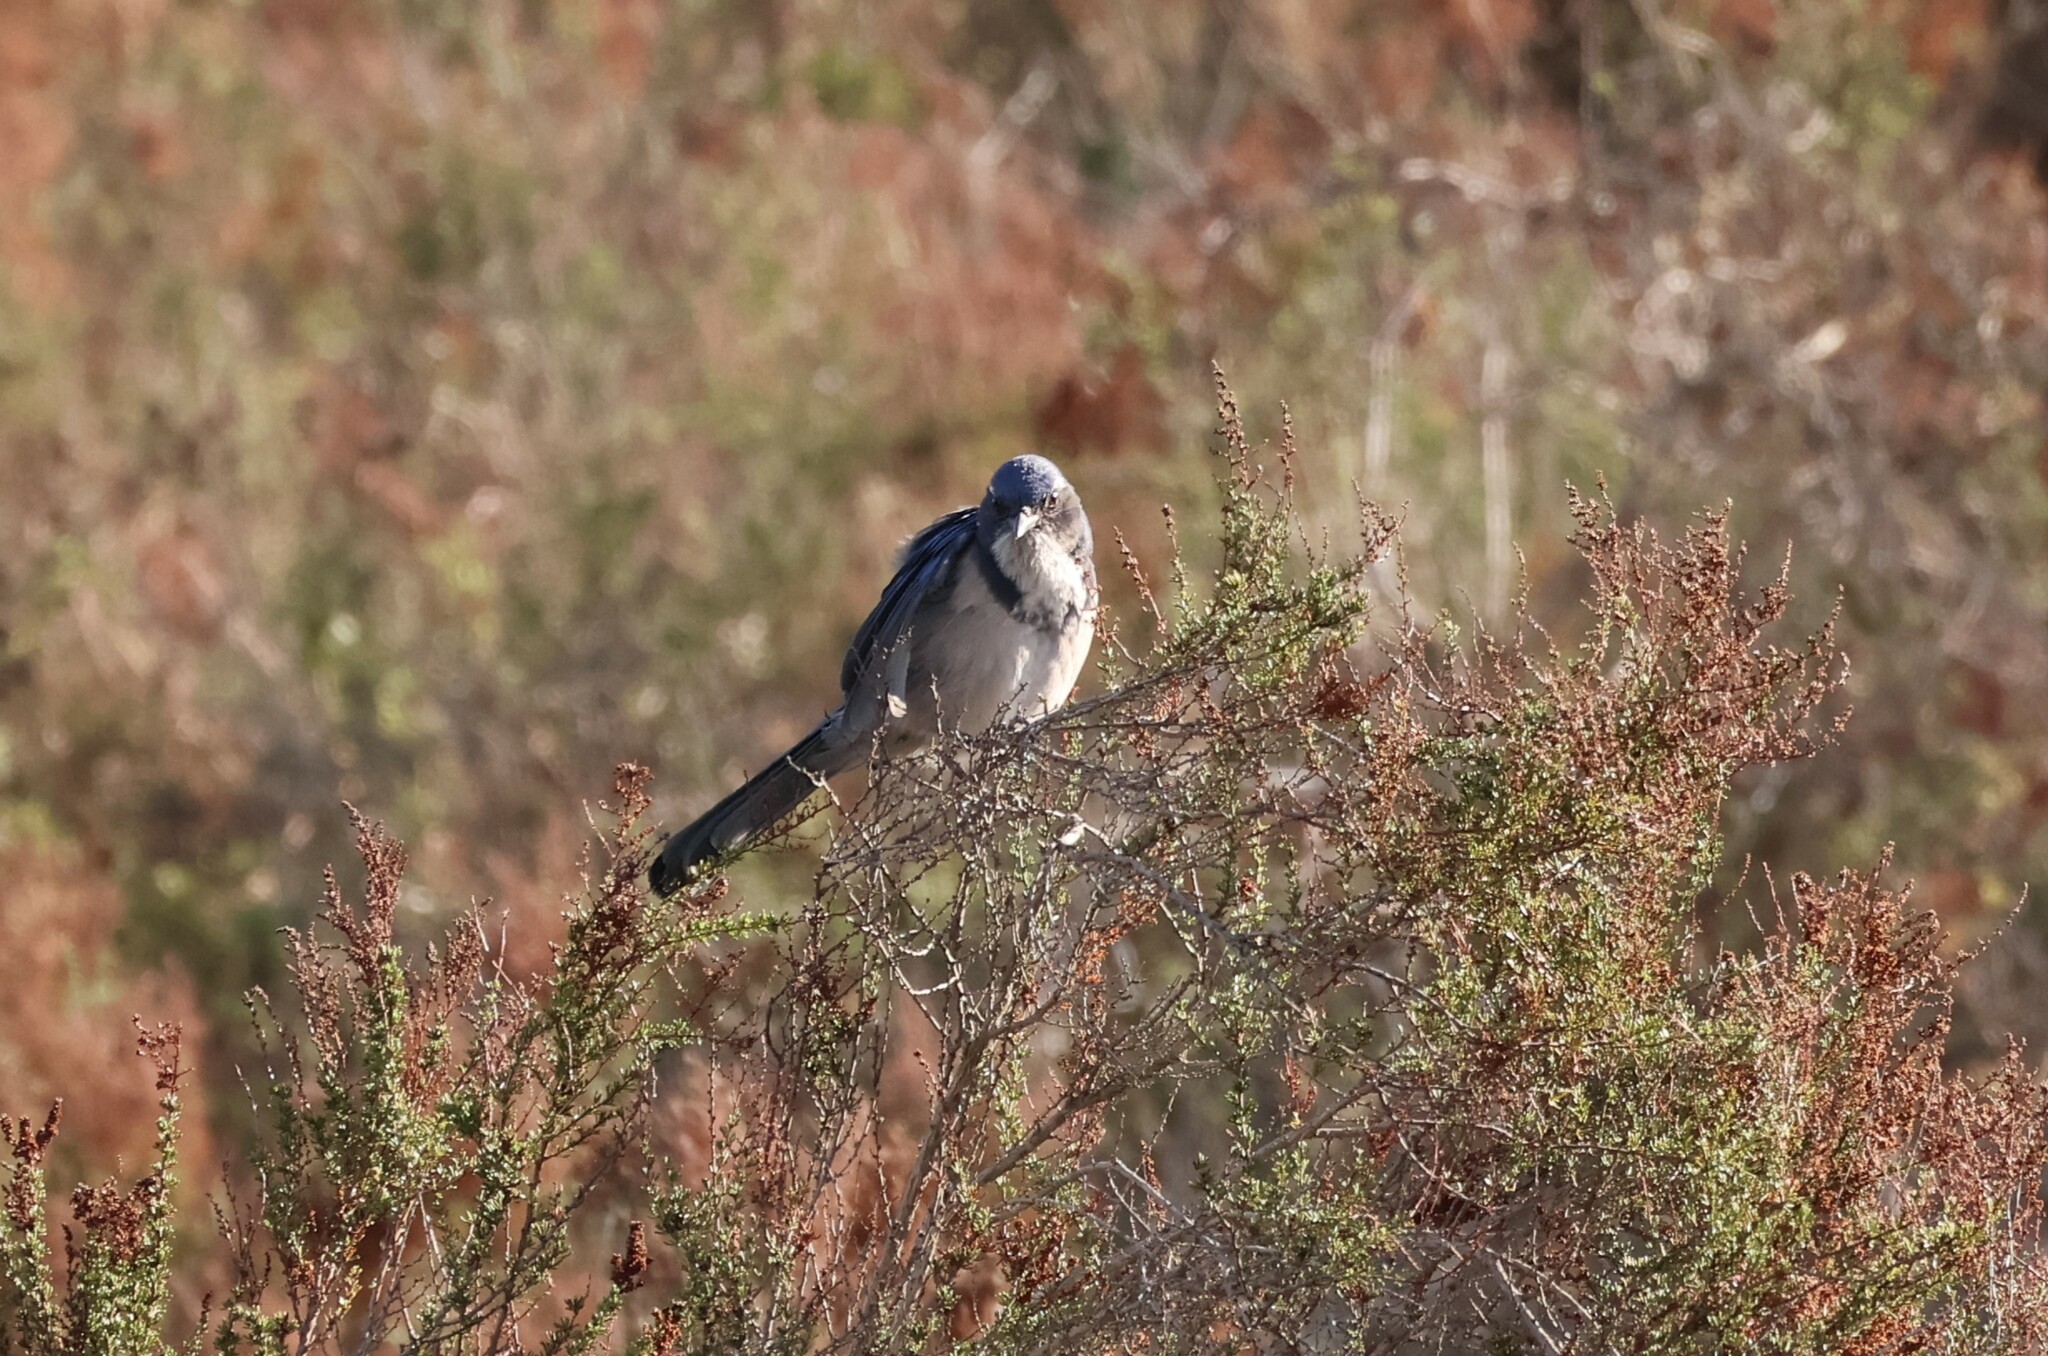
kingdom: Animalia
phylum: Chordata
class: Aves
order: Passeriformes
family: Corvidae
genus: Aphelocoma
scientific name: Aphelocoma californica
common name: California scrub-jay
